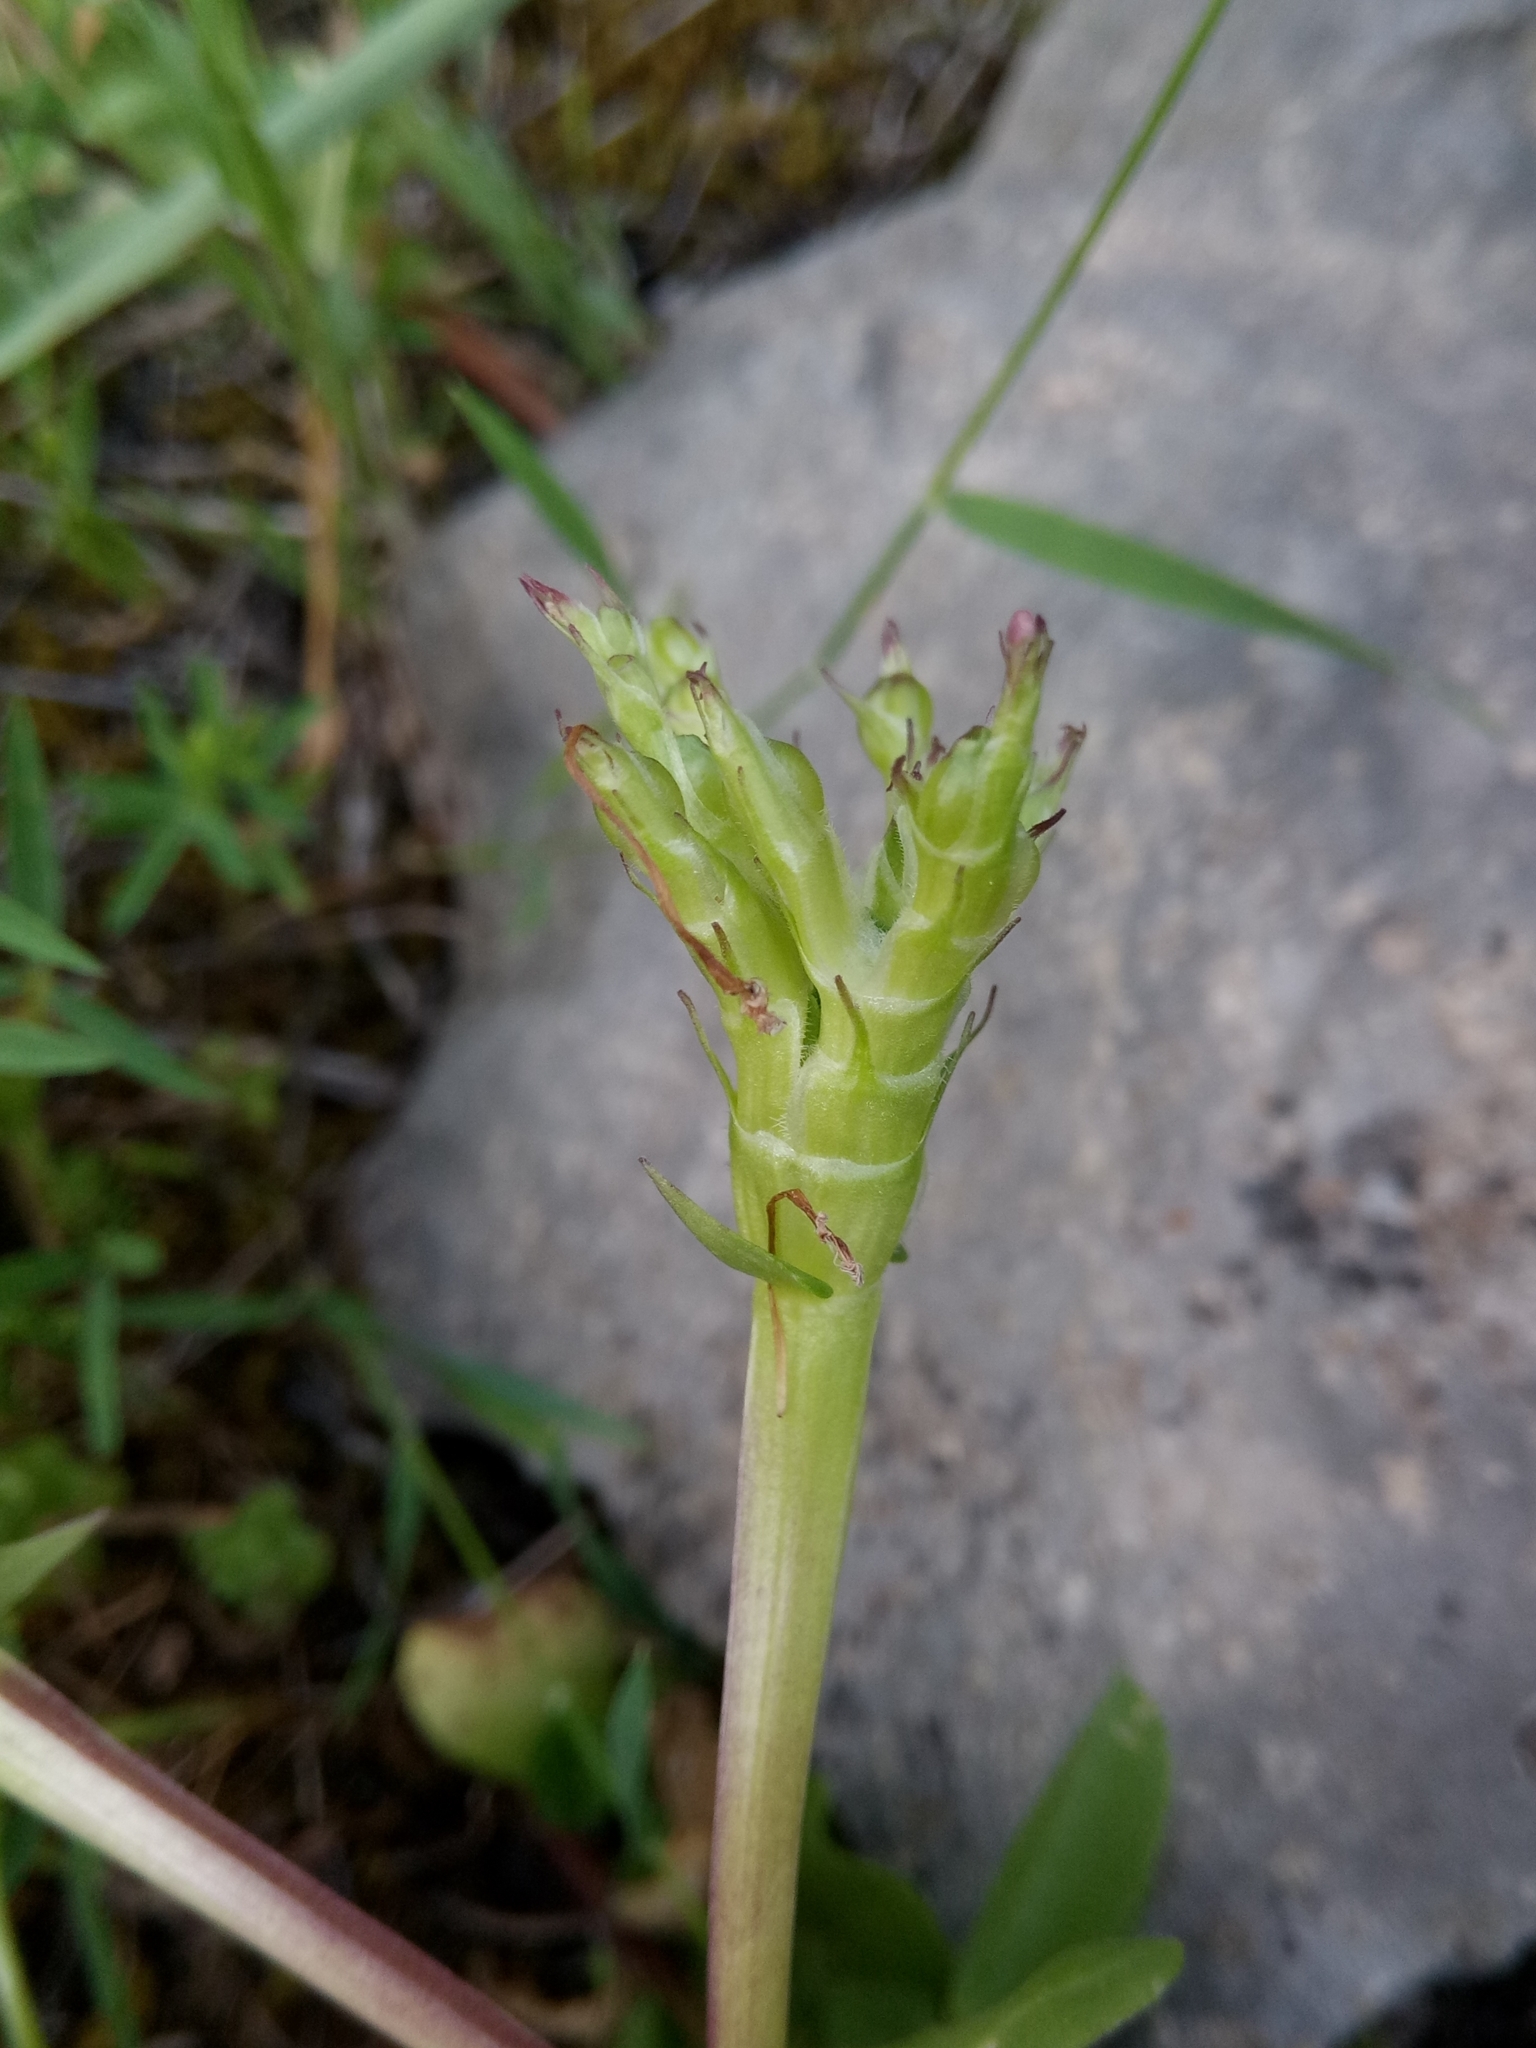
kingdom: Plantae
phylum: Tracheophyta
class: Magnoliopsida
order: Dipsacales
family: Caprifoliaceae
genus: Fedia
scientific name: Fedia graciliflora
